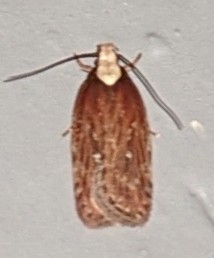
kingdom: Animalia
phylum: Arthropoda
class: Insecta
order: Lepidoptera
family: Depressariidae
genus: Depressaria
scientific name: Depressaria depressana
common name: Lost flat-body
